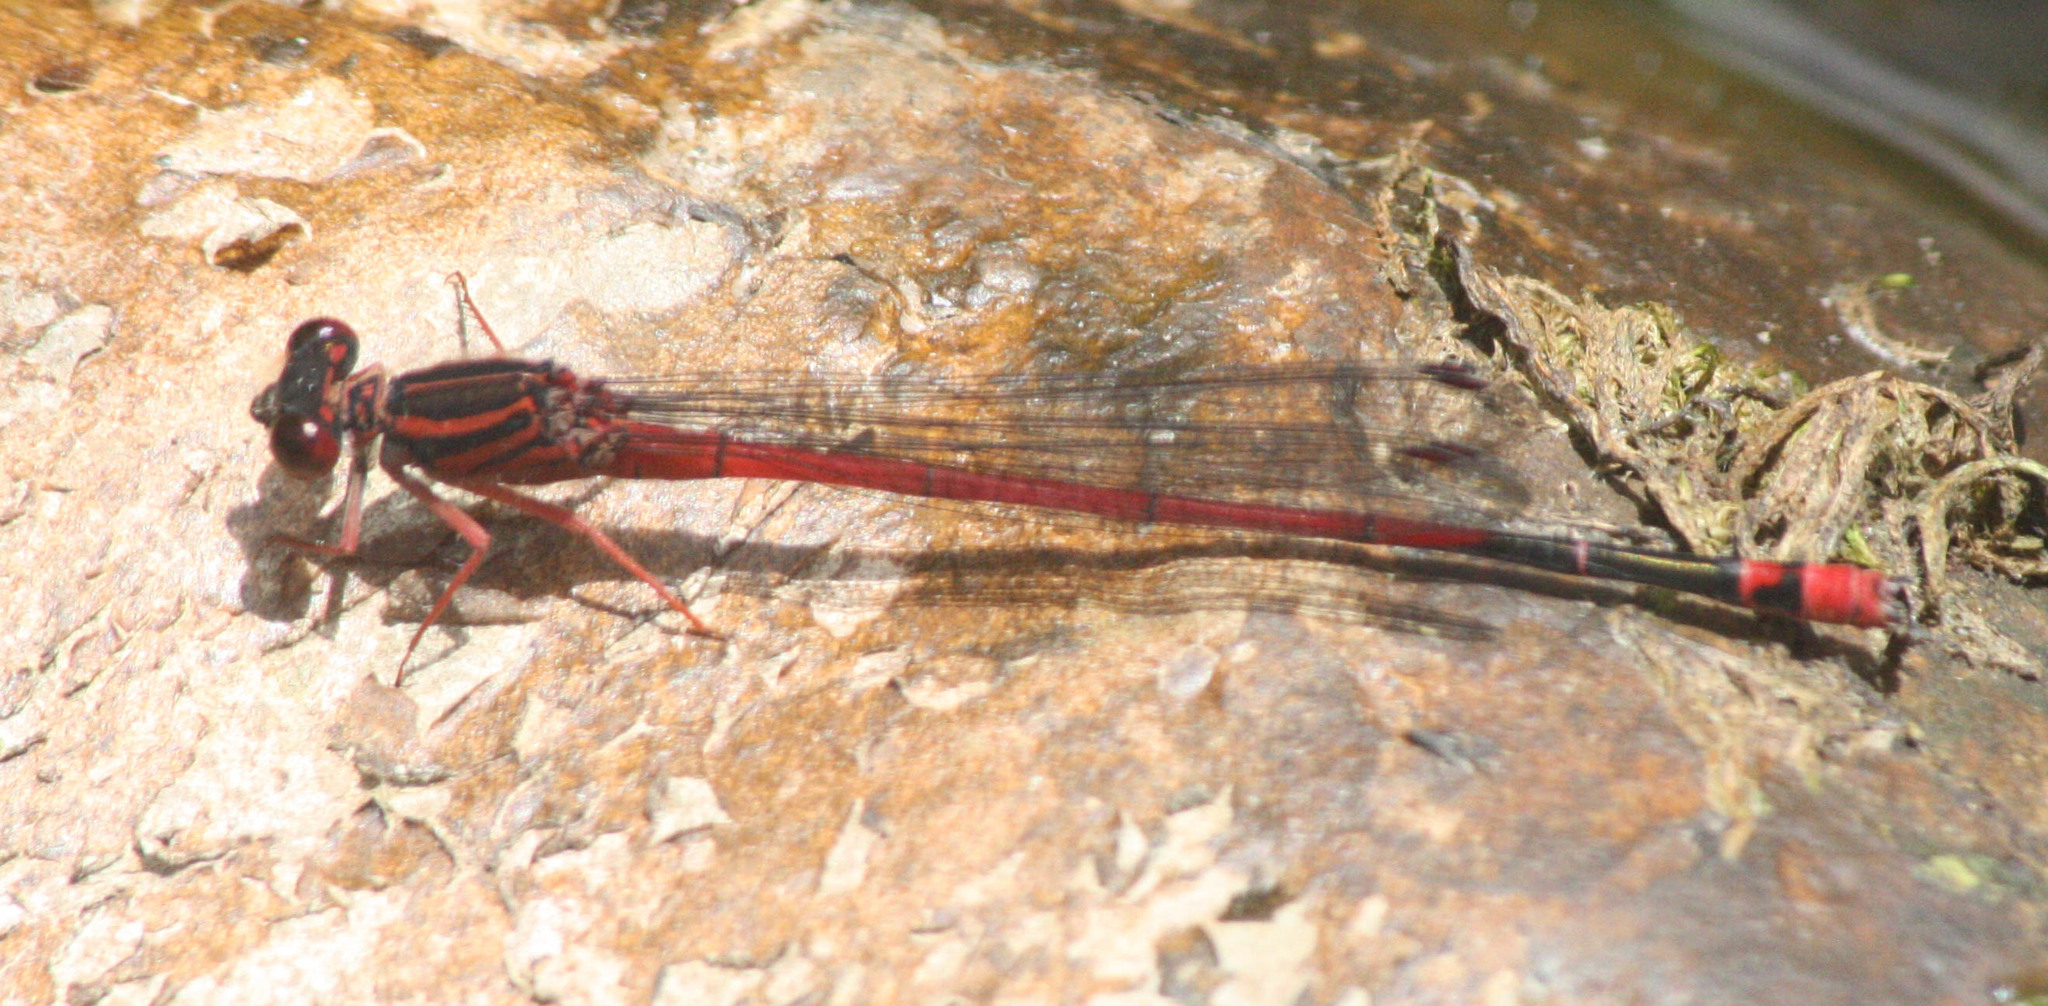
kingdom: Animalia
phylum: Arthropoda
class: Insecta
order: Odonata
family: Coenagrionidae
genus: Megalagrion
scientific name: Megalagrion heterogamias
